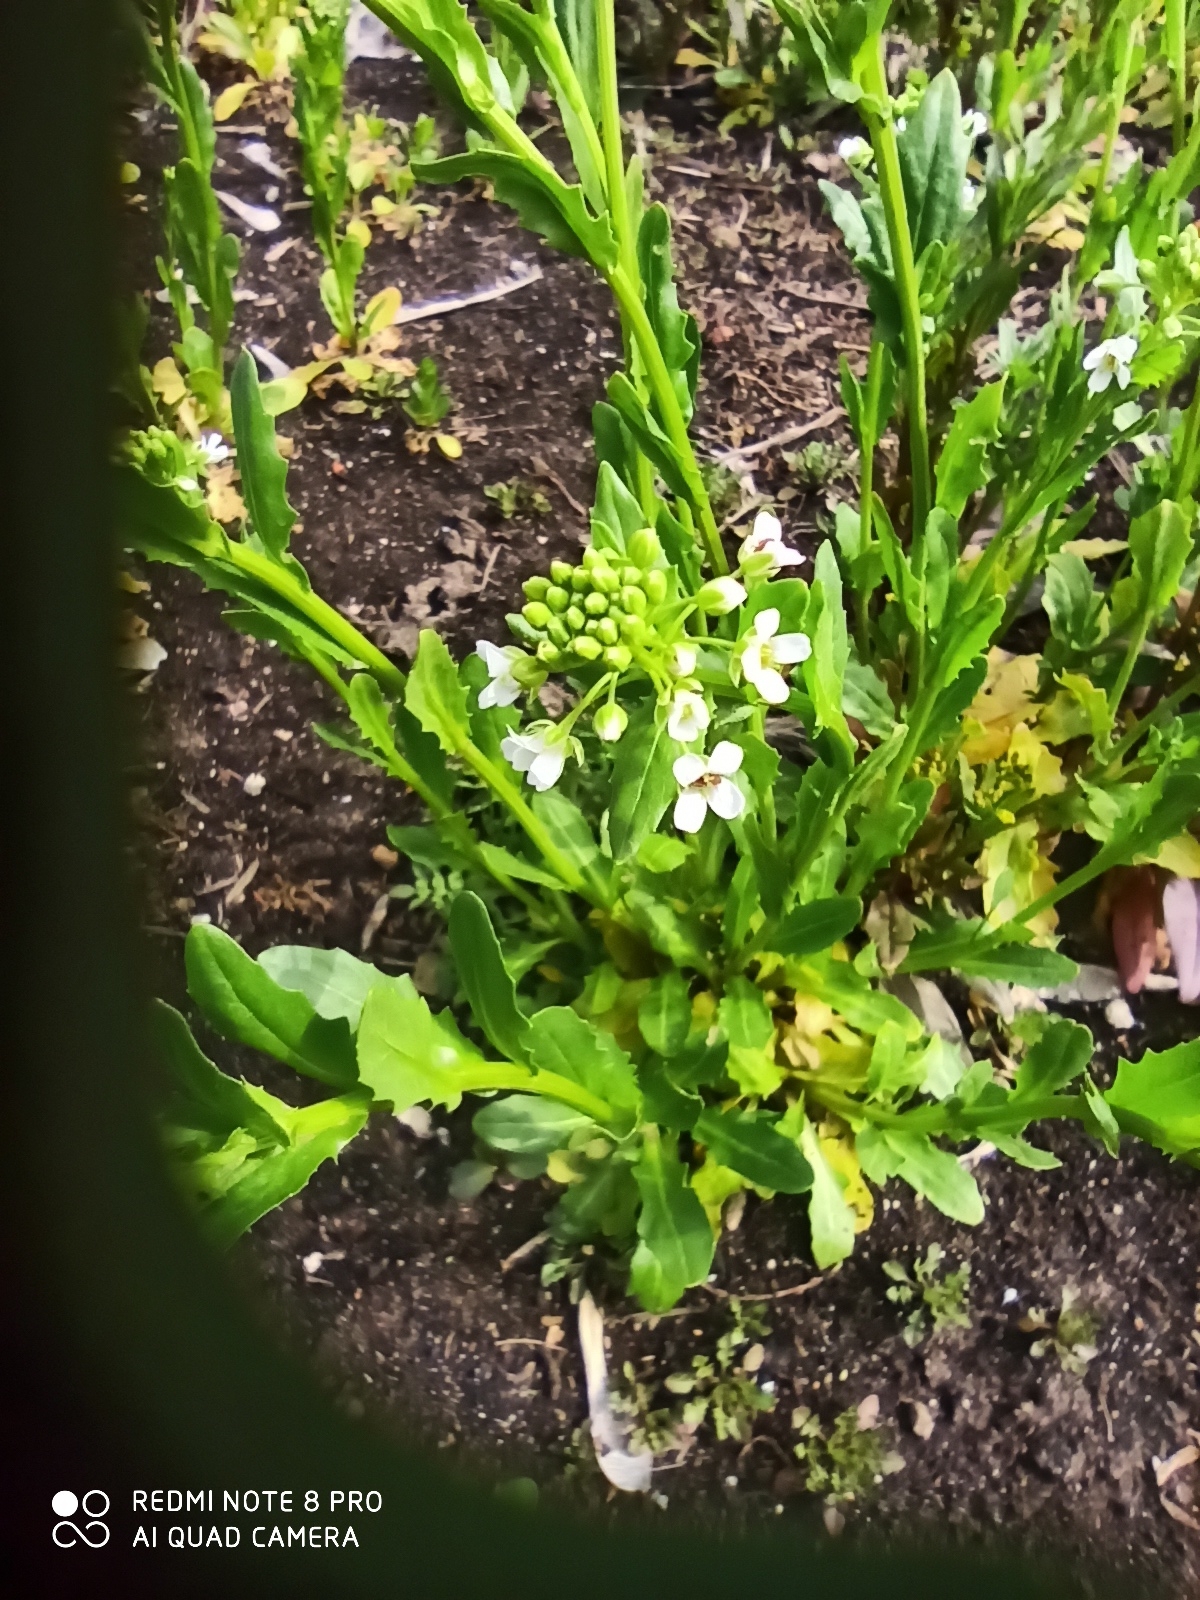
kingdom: Plantae
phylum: Tracheophyta
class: Magnoliopsida
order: Brassicales
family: Brassicaceae
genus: Thlaspi
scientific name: Thlaspi arvense
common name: Field pennycress
